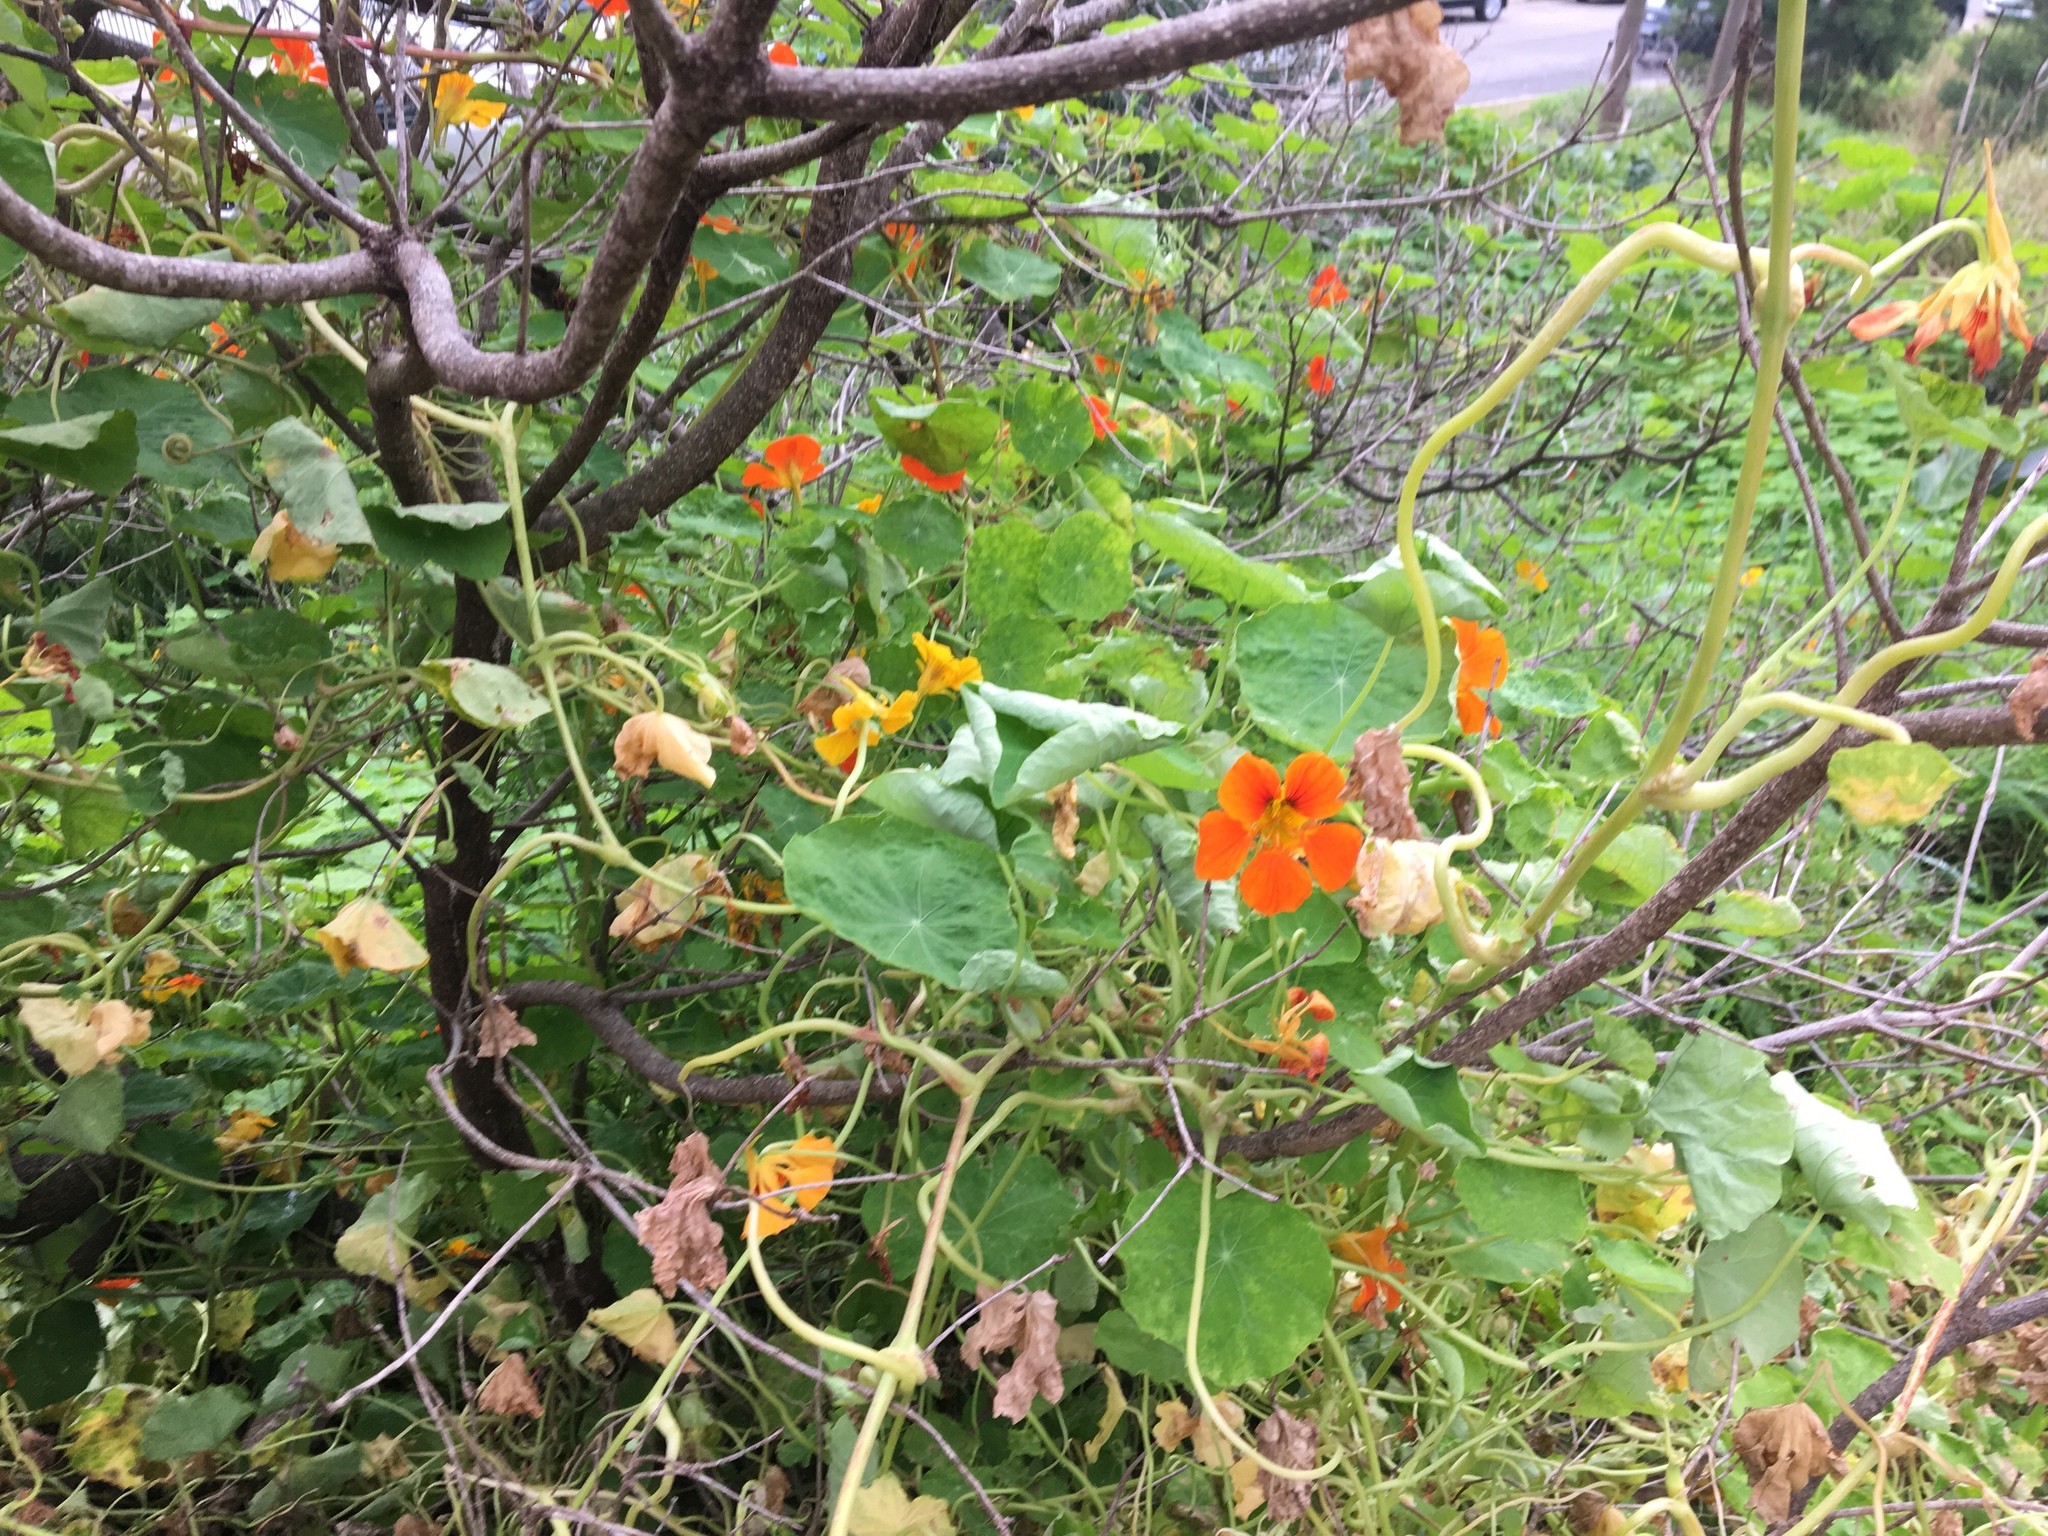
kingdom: Plantae
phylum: Tracheophyta
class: Magnoliopsida
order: Brassicales
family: Tropaeolaceae
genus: Tropaeolum
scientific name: Tropaeolum majus
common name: Nasturtium
